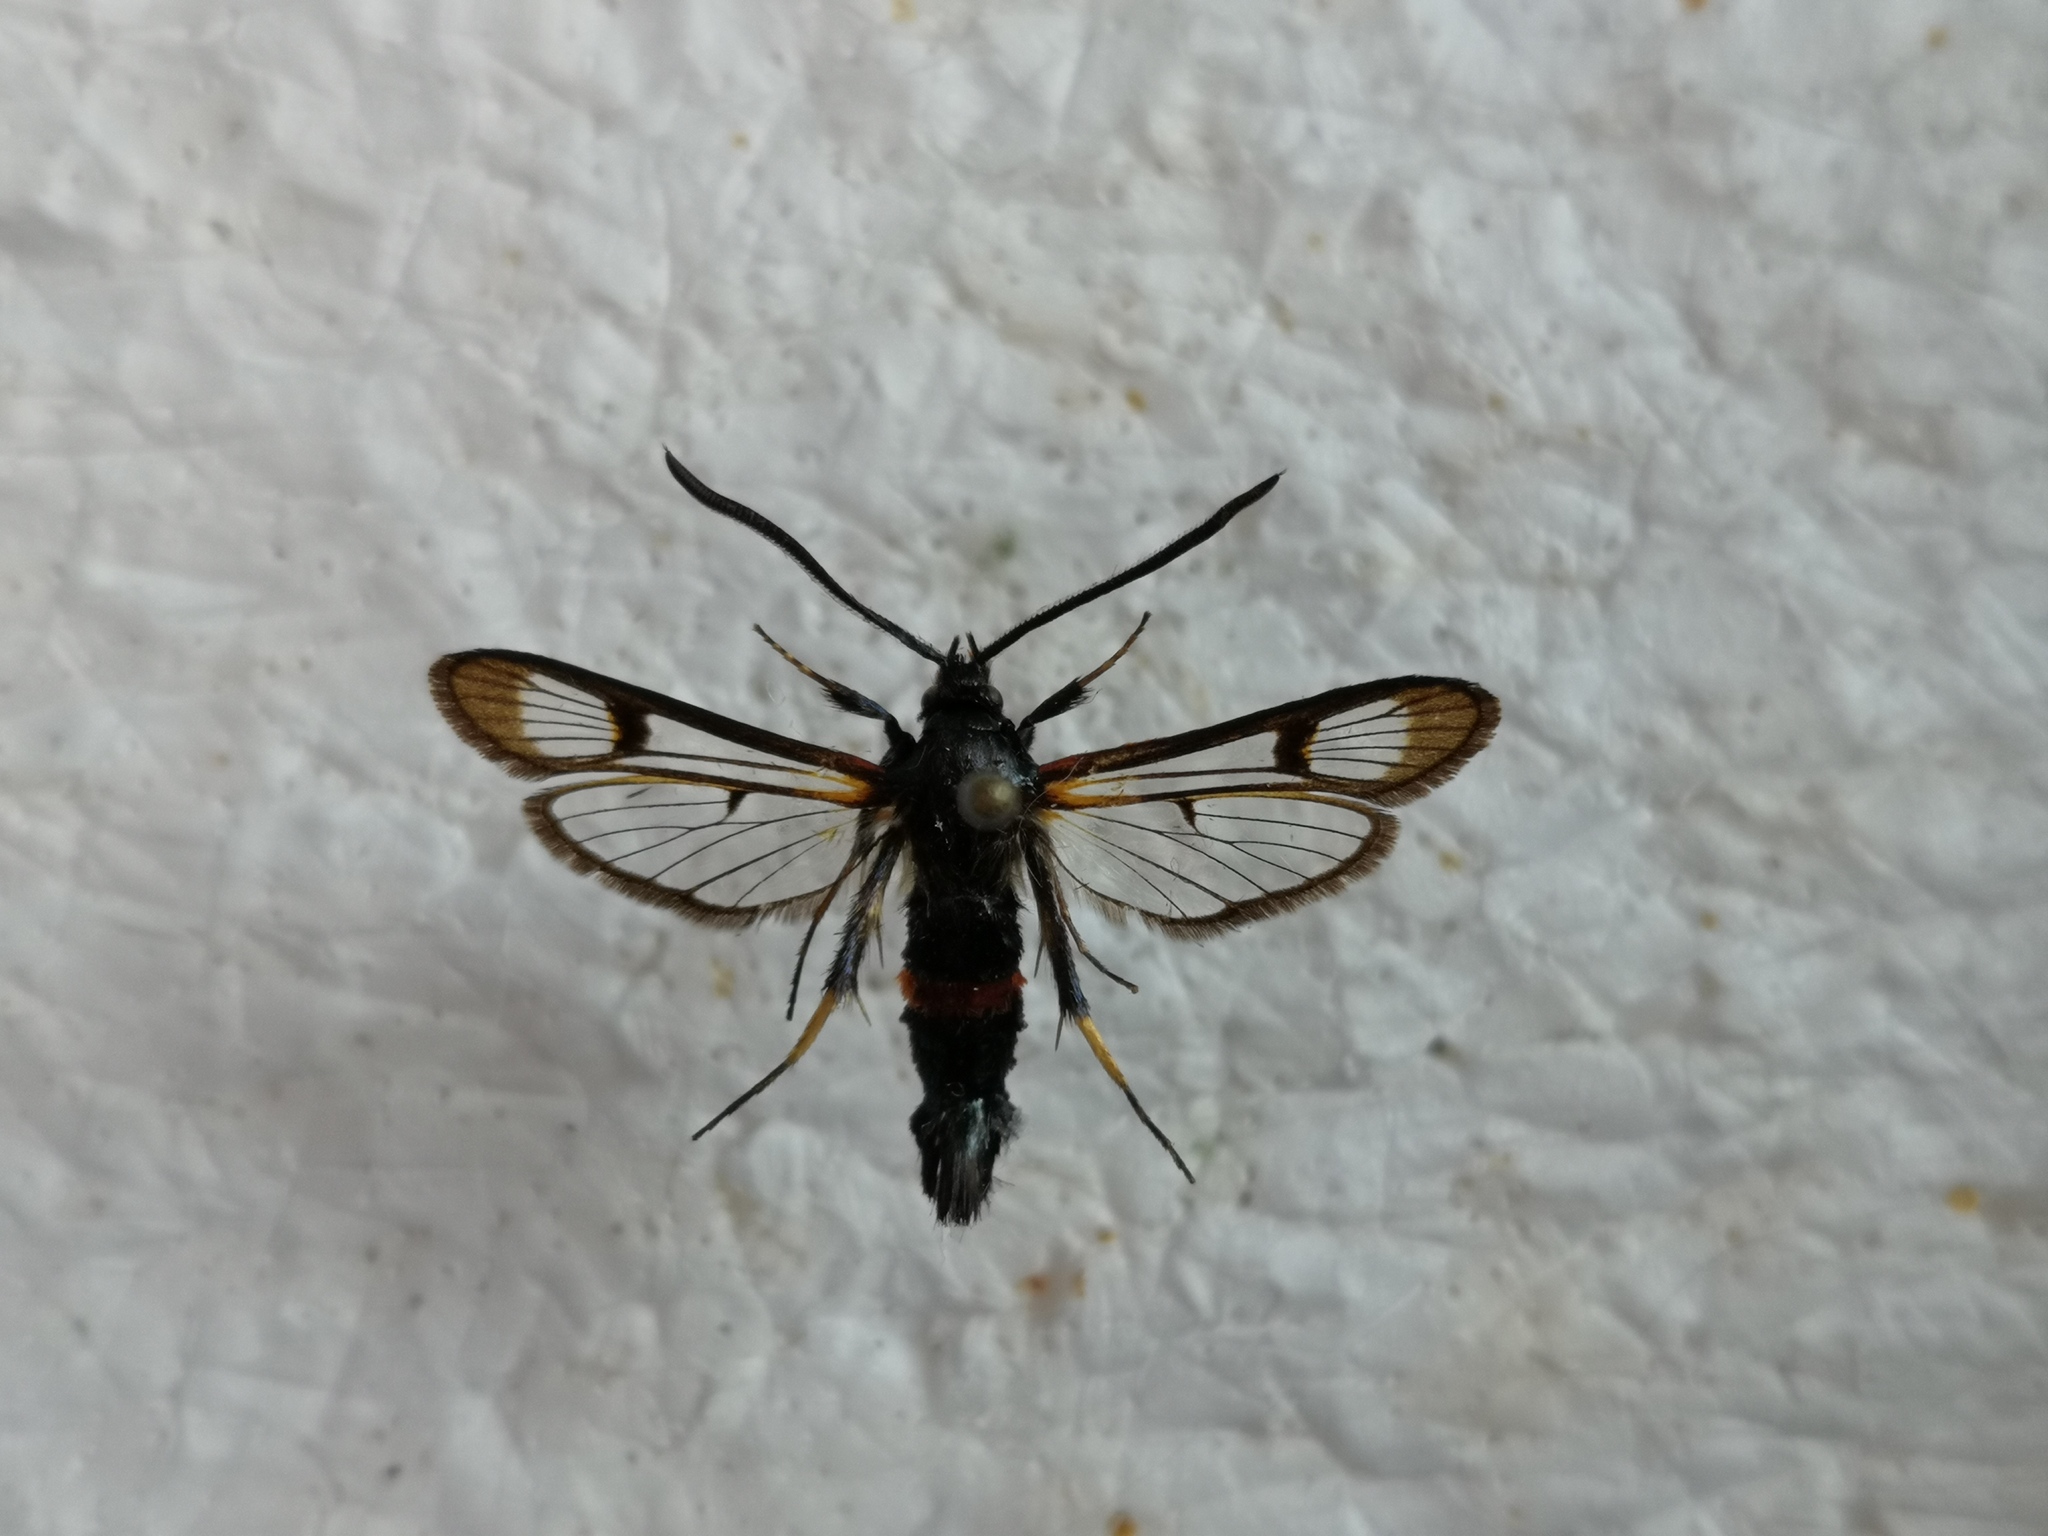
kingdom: Animalia
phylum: Arthropoda
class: Insecta
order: Lepidoptera
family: Sesiidae
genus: Synanthedon
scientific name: Synanthedon culiciformis
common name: Large red-belted clearwing
